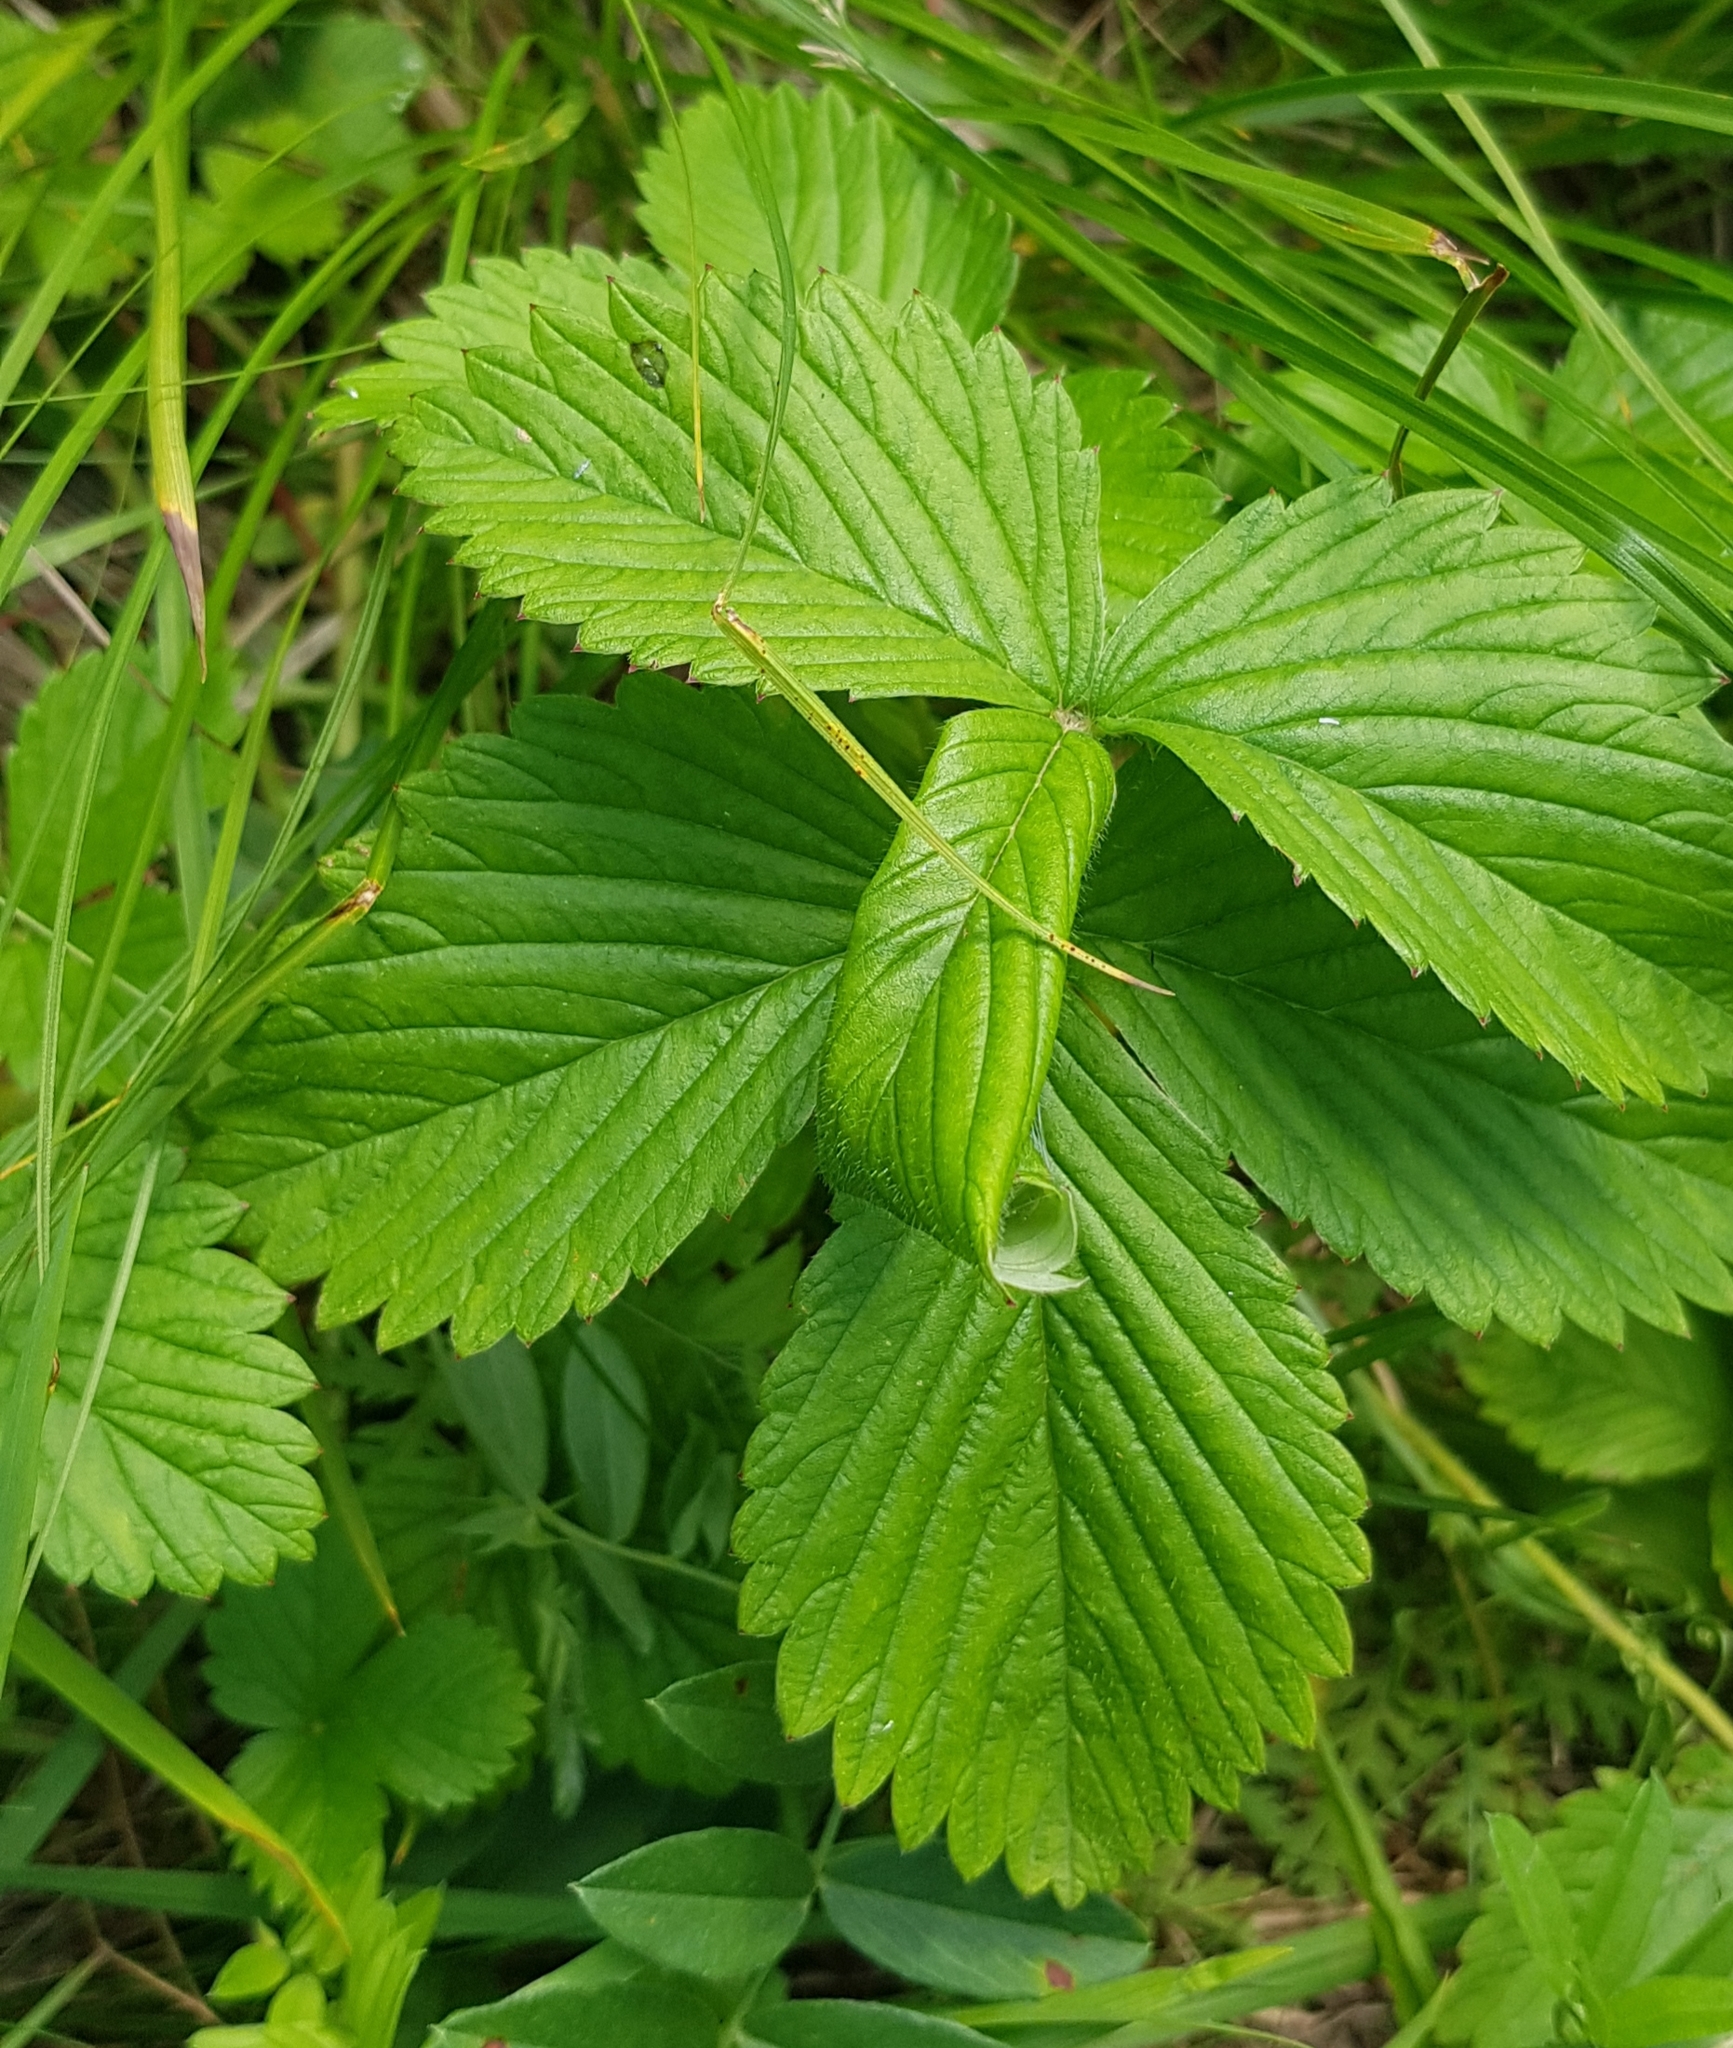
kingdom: Plantae
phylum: Tracheophyta
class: Magnoliopsida
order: Rosales
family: Rosaceae
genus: Fragaria
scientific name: Fragaria viridis
